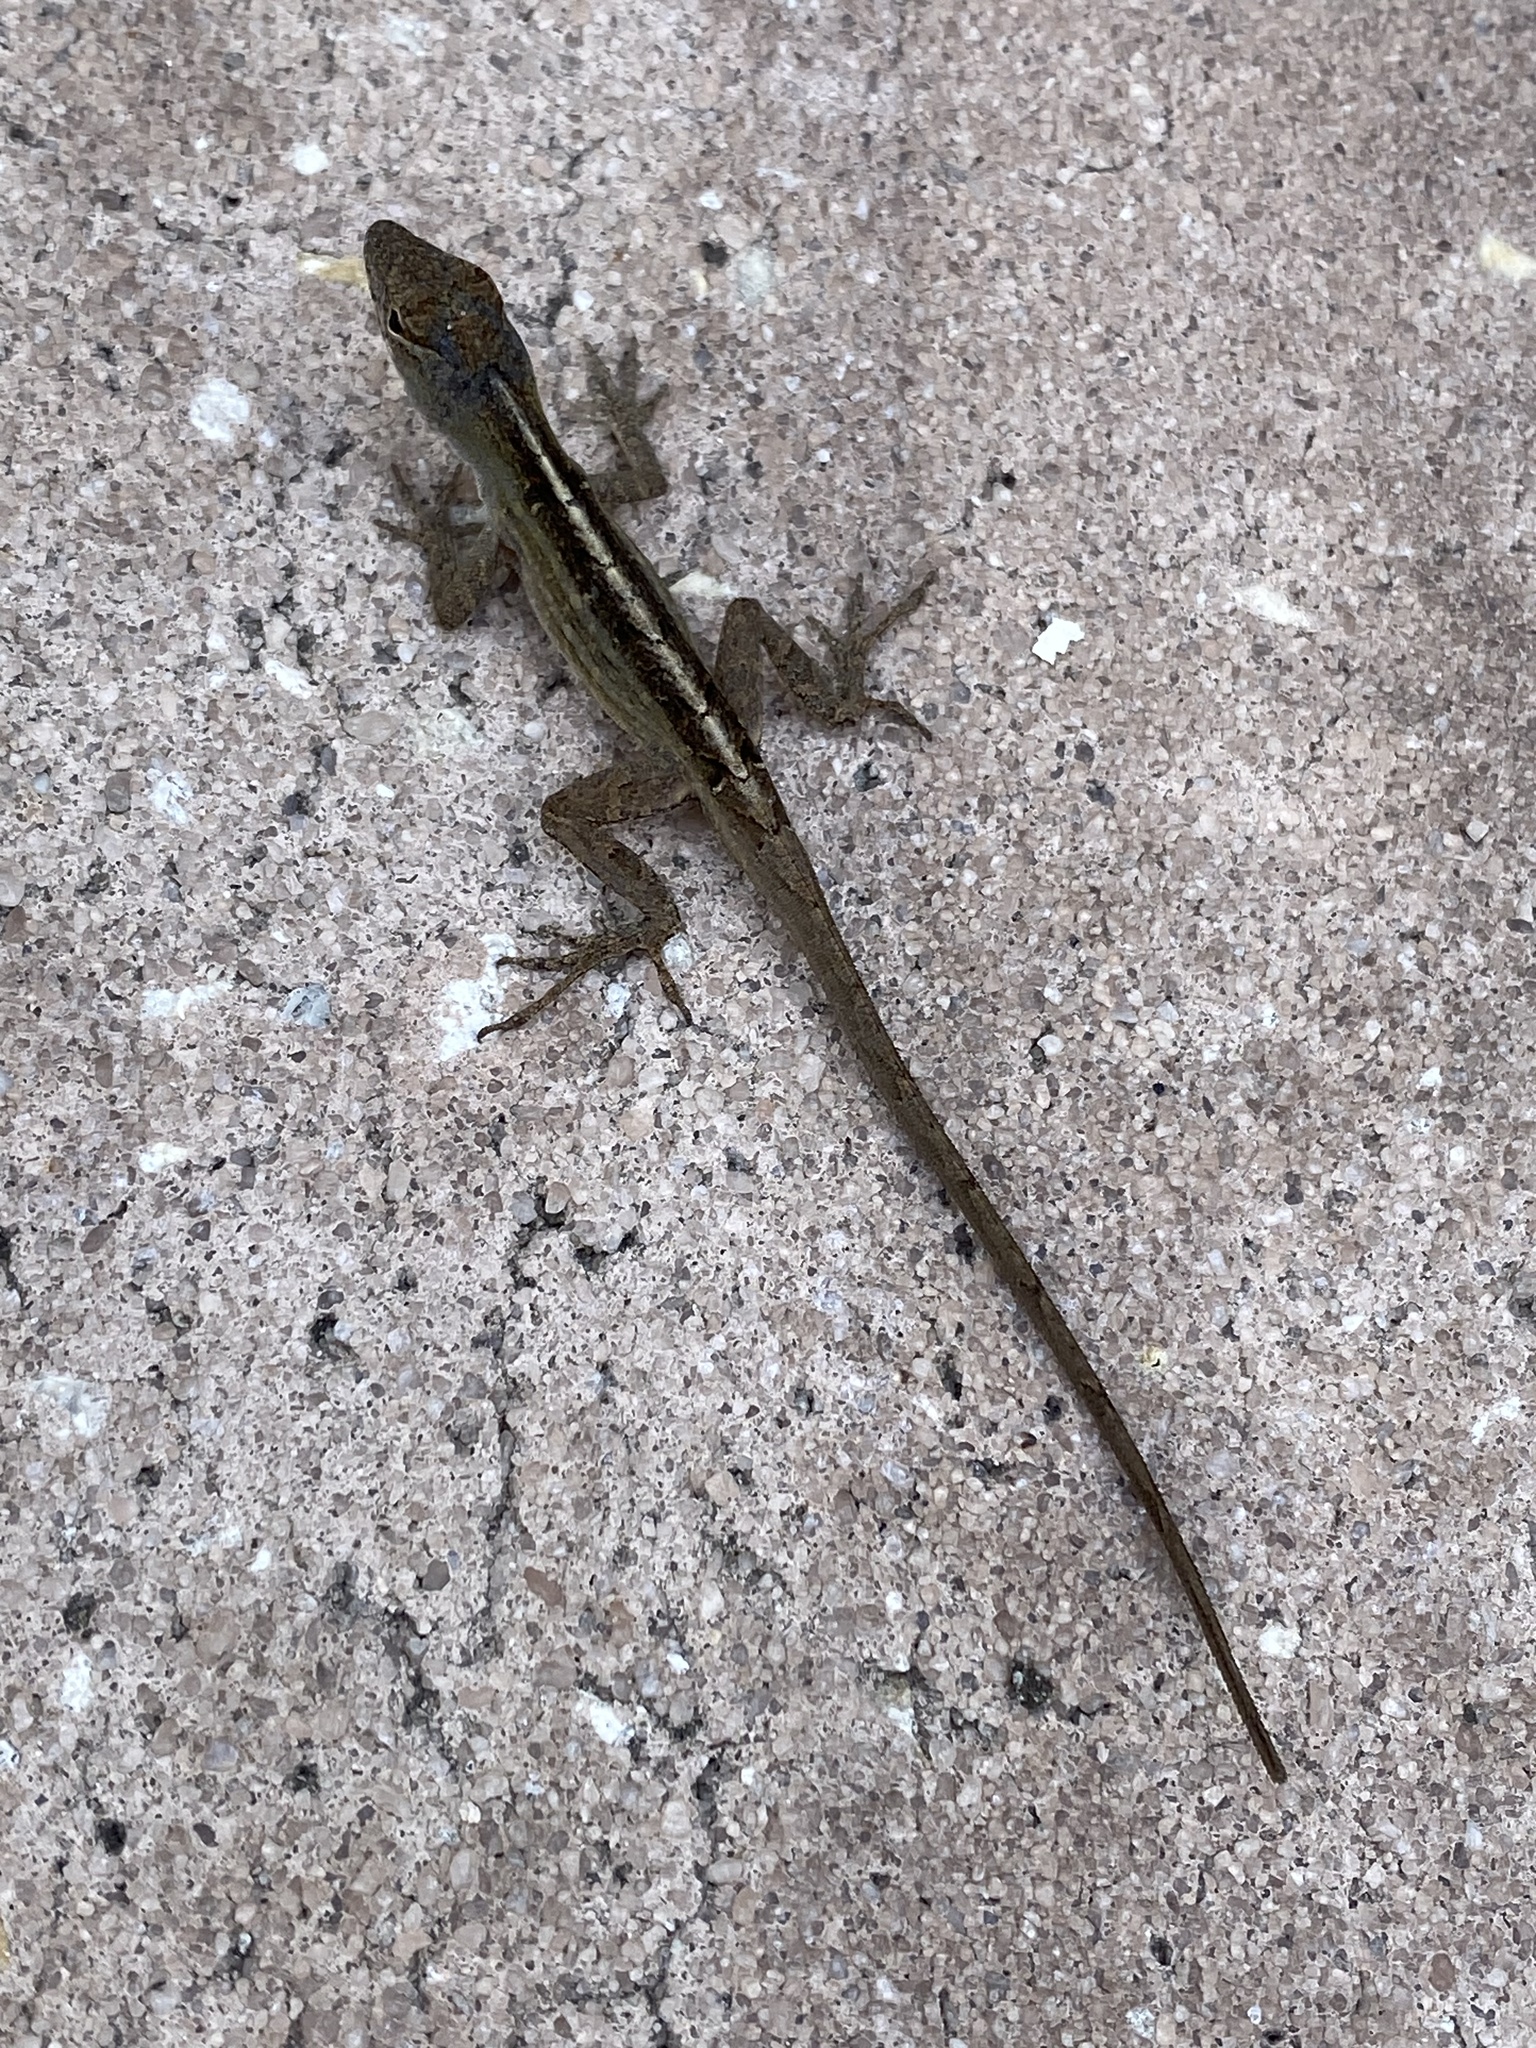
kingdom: Animalia
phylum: Chordata
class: Squamata
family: Dactyloidae
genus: Anolis
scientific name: Anolis sagrei
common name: Brown anole
